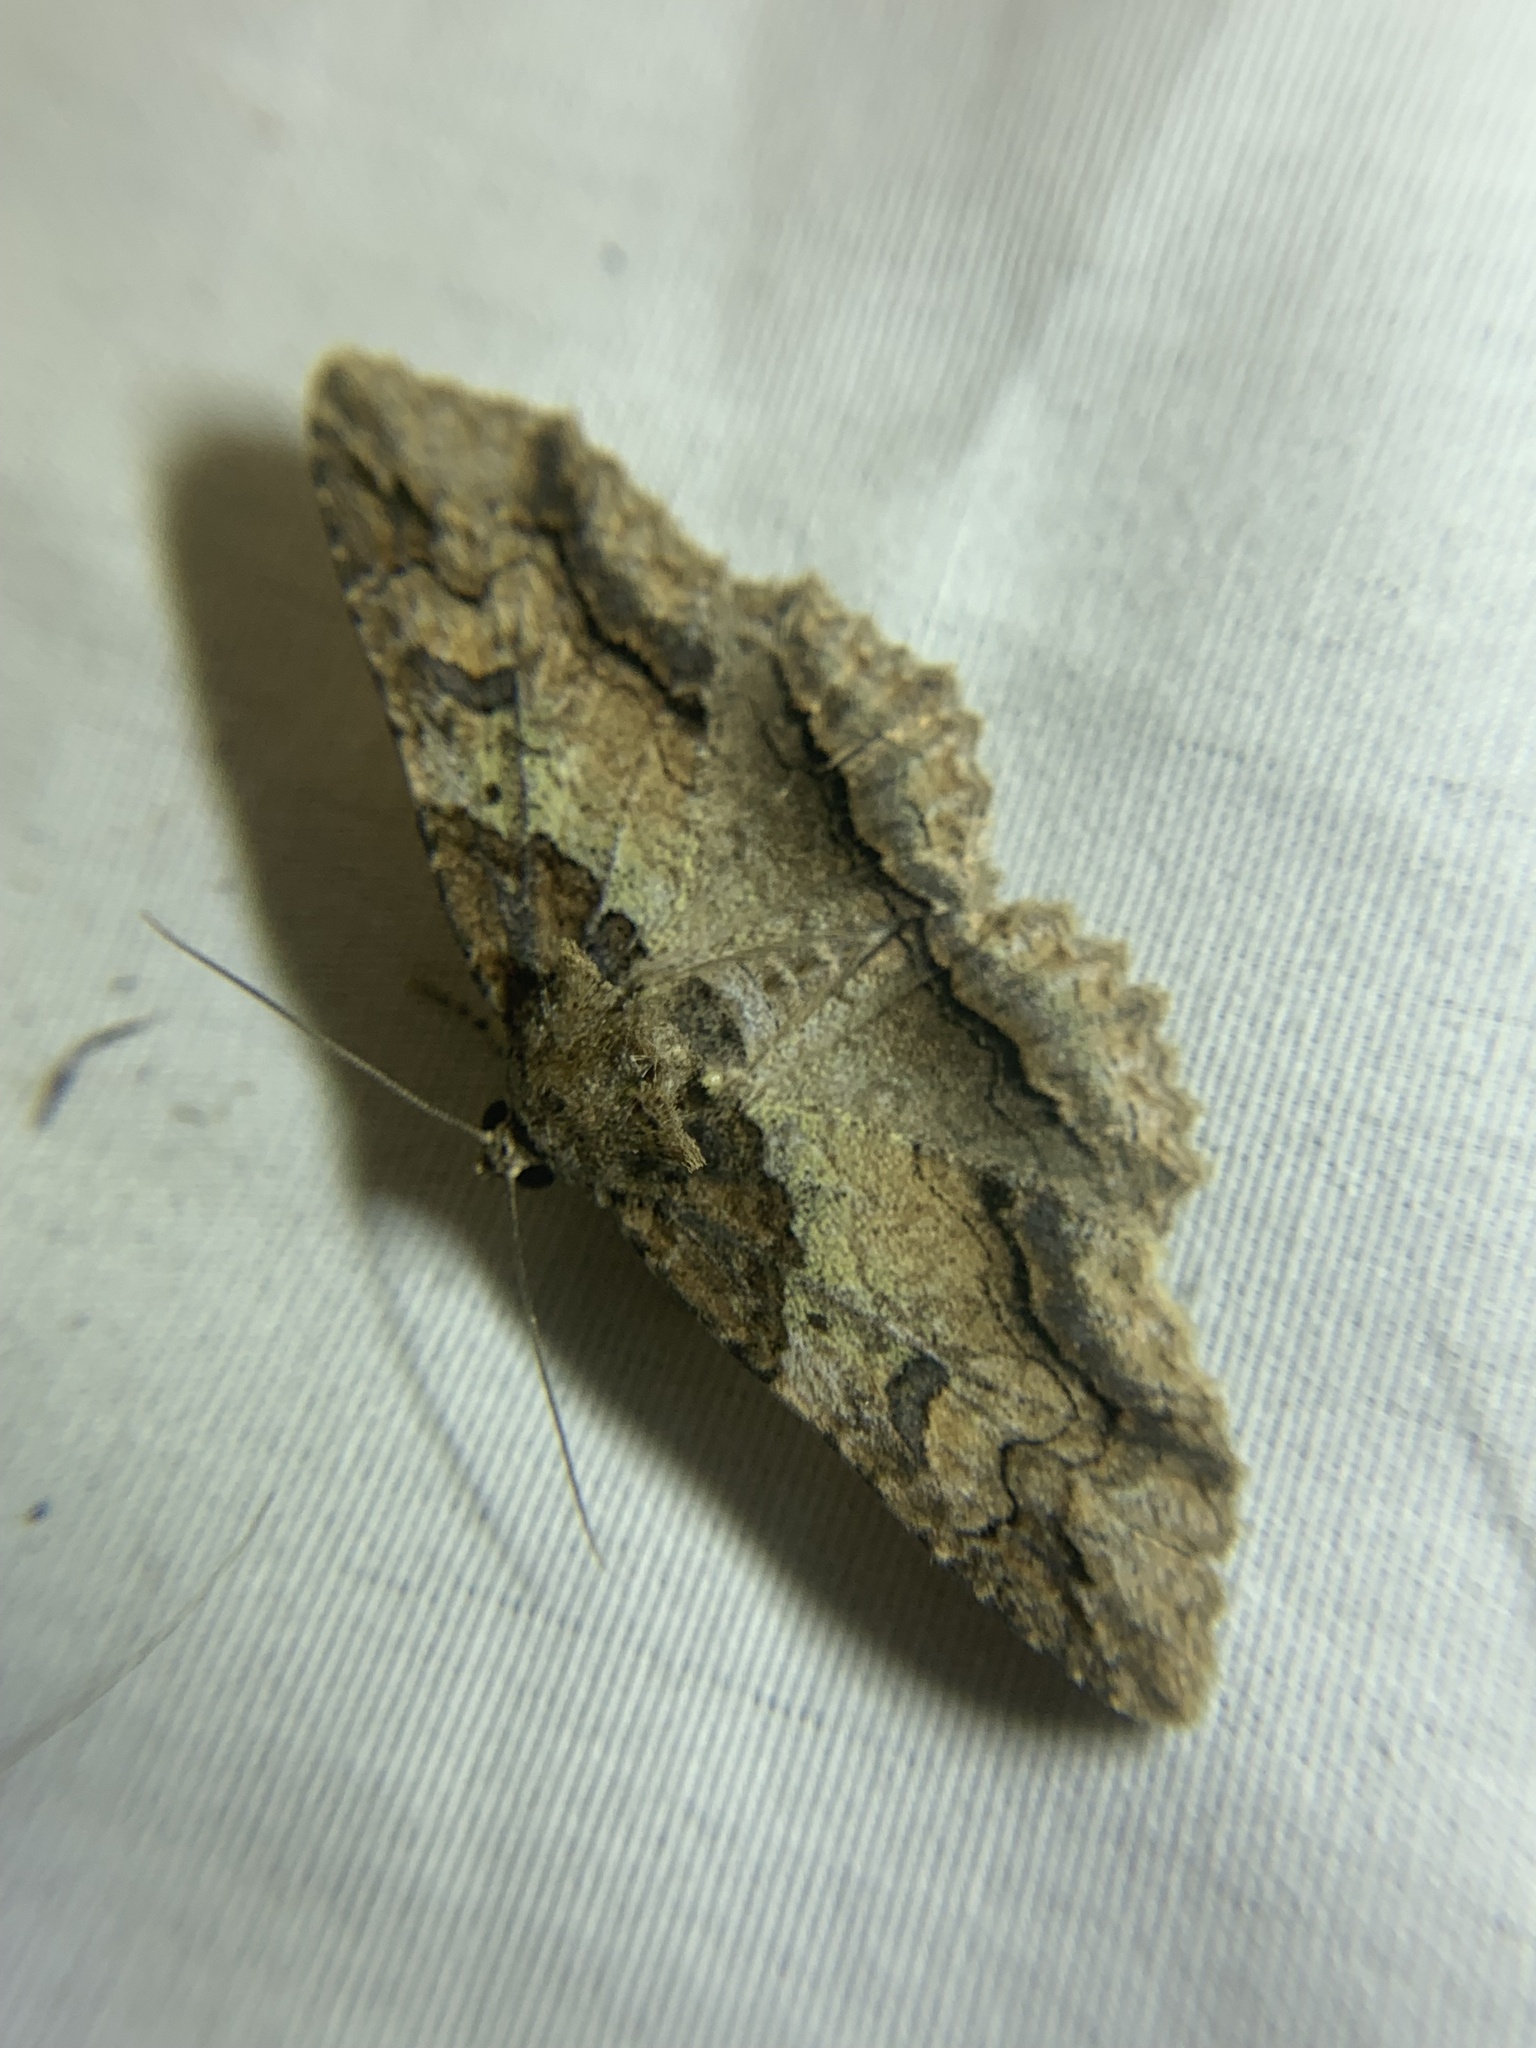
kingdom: Animalia
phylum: Arthropoda
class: Insecta
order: Lepidoptera
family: Erebidae
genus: Zale
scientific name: Zale galbanata
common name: Maple zale
